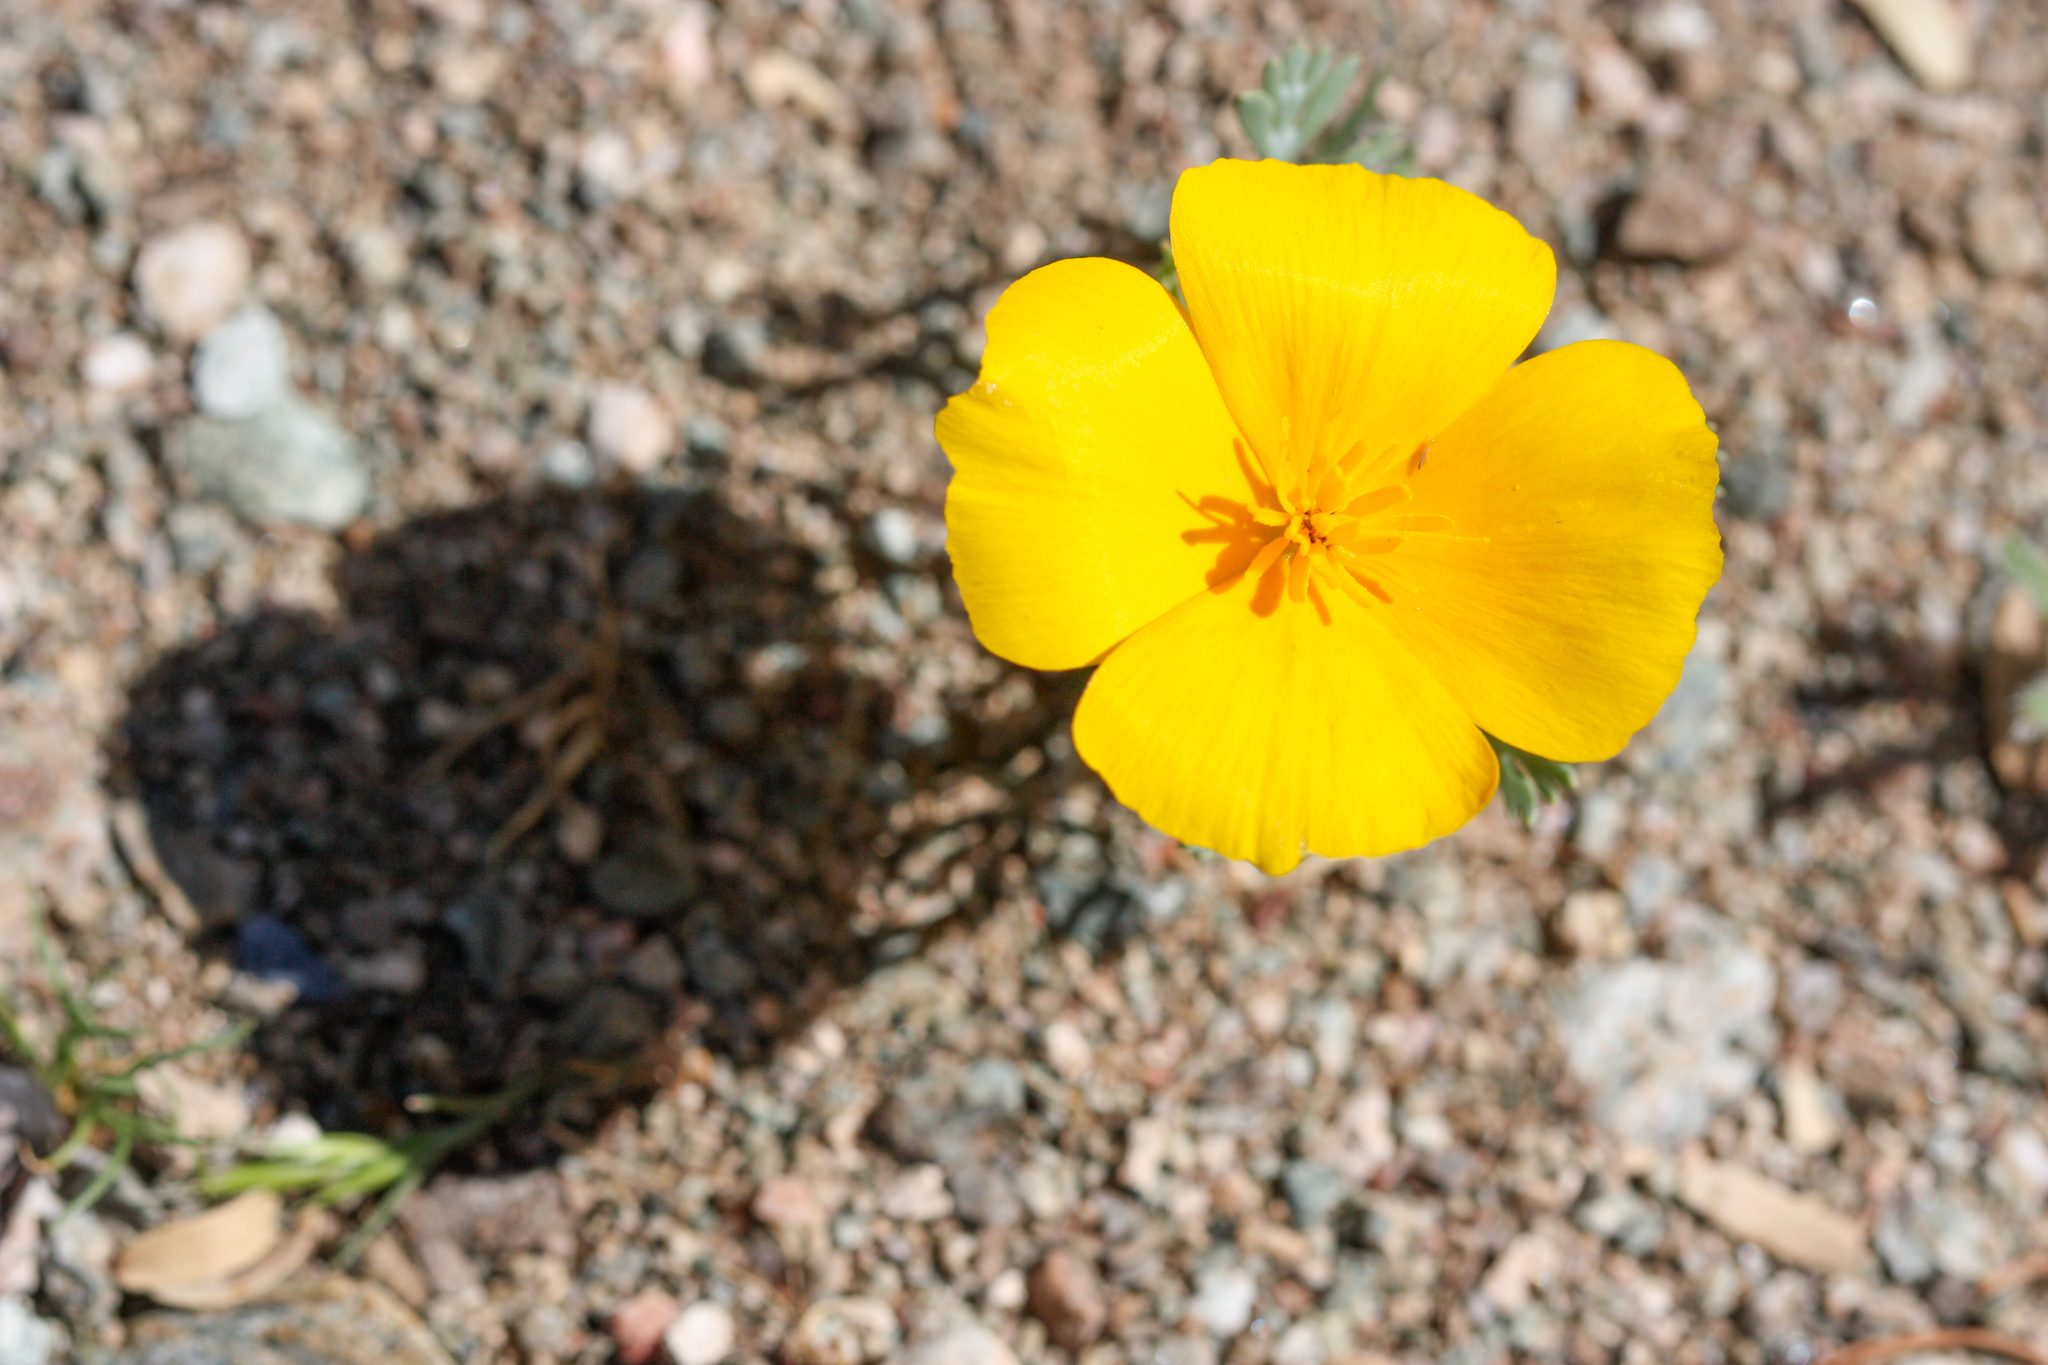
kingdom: Plantae
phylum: Tracheophyta
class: Magnoliopsida
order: Ranunculales
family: Papaveraceae
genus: Eschscholzia
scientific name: Eschscholzia californica
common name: California poppy
